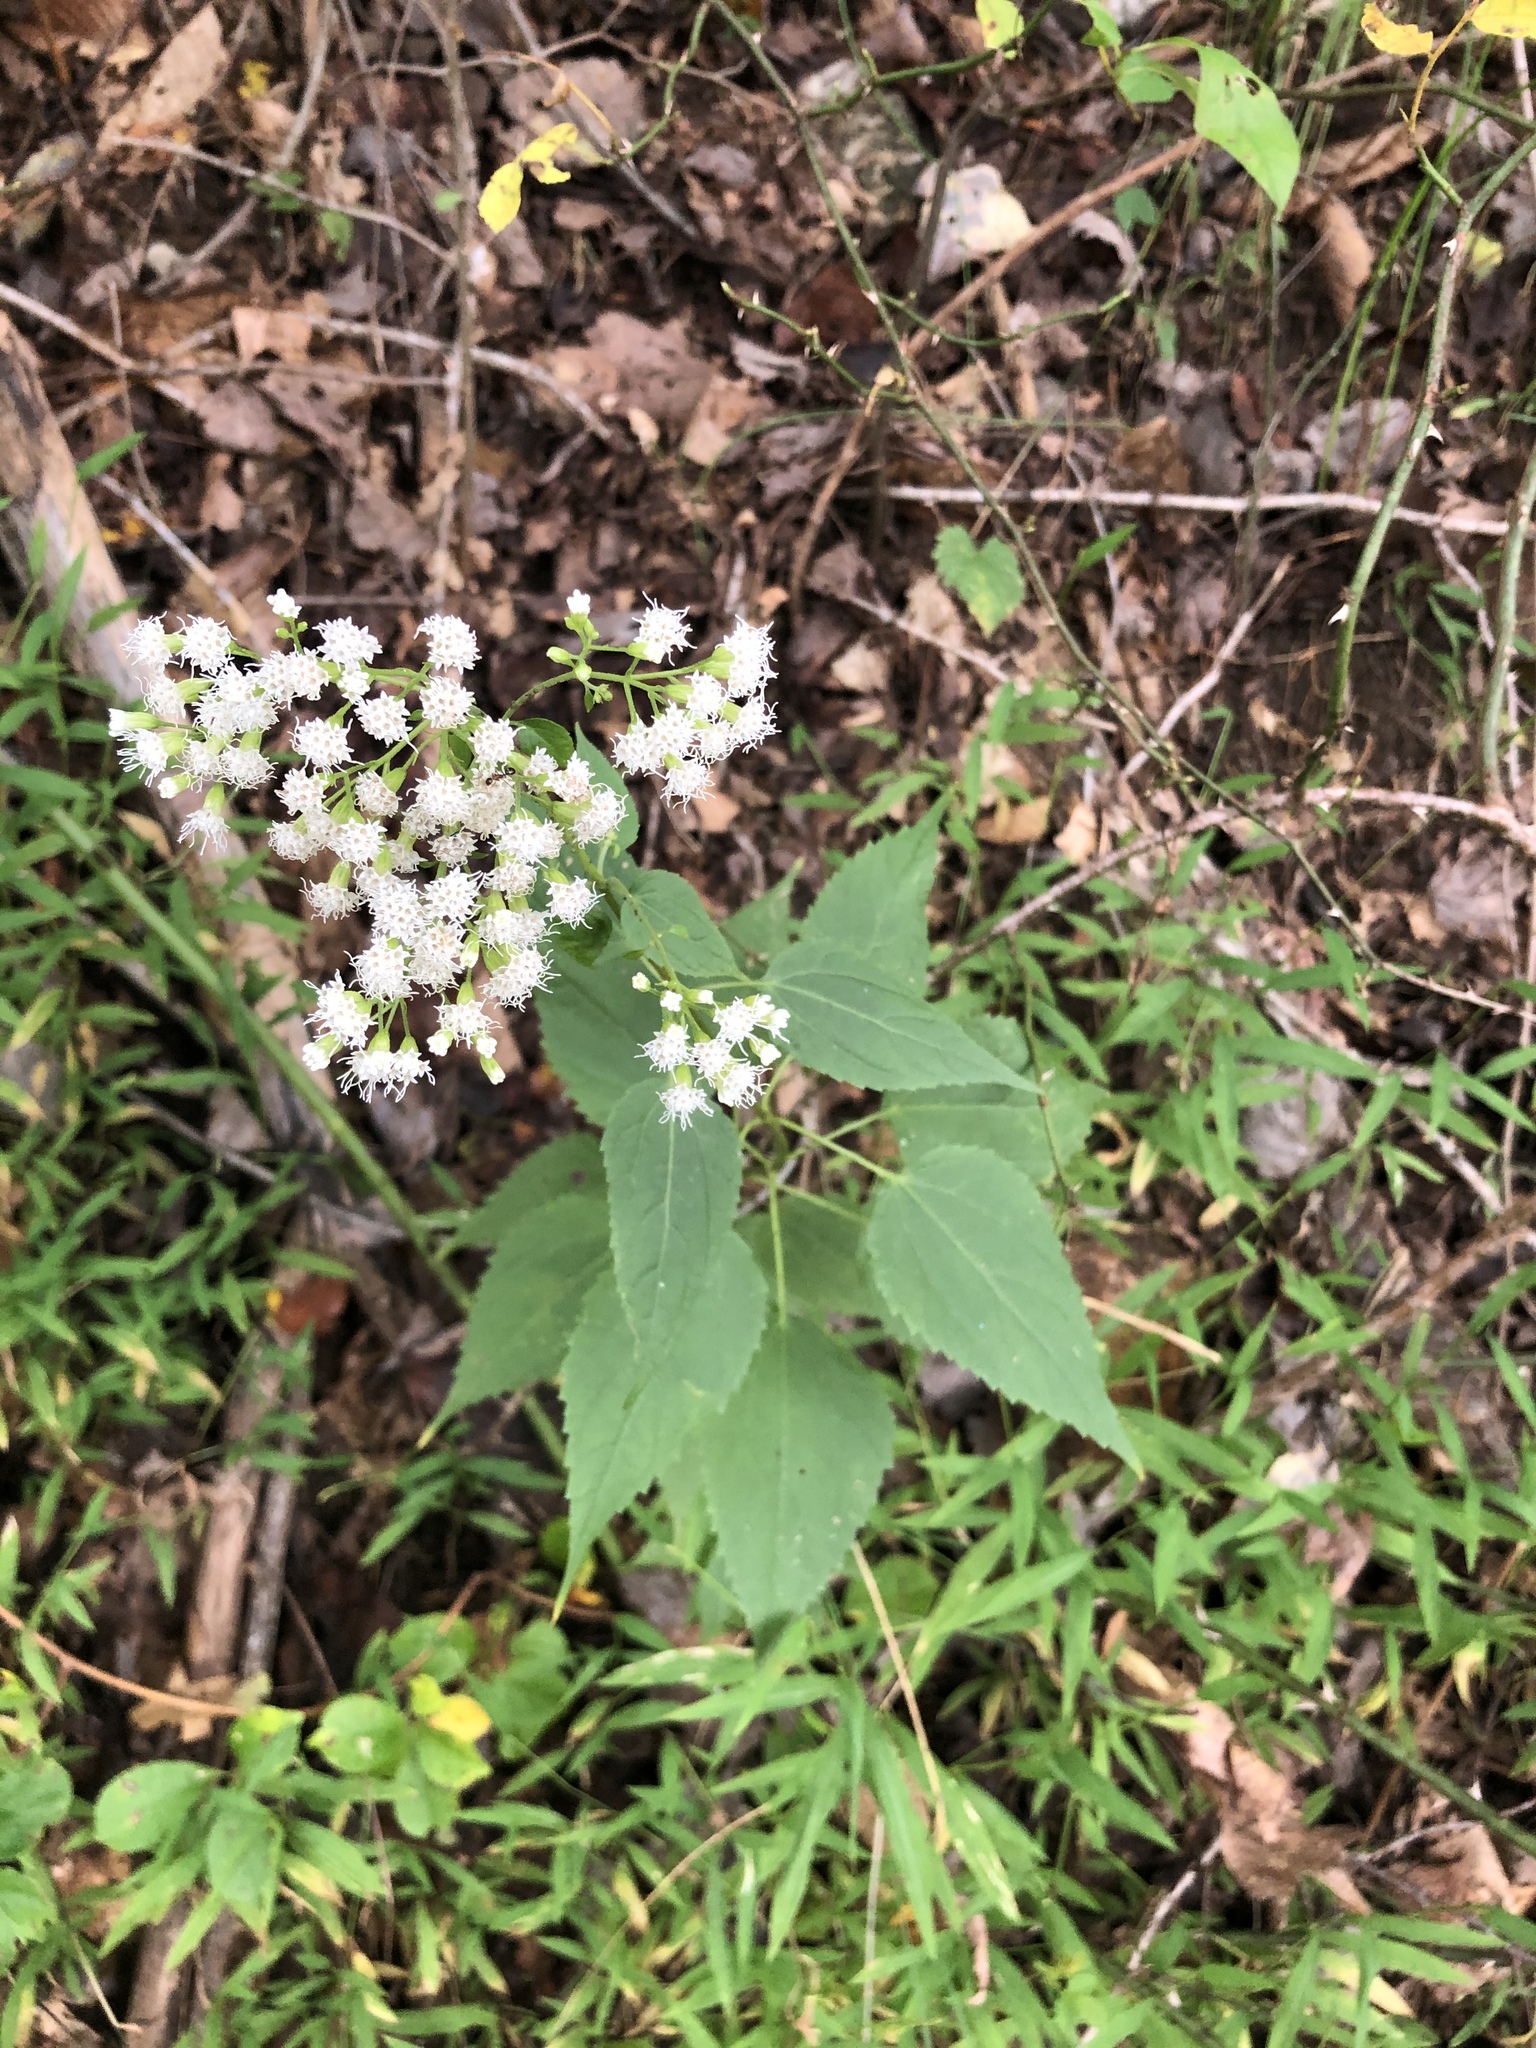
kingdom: Plantae
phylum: Tracheophyta
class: Magnoliopsida
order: Asterales
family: Asteraceae
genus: Ageratina
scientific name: Ageratina altissima
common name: White snakeroot
